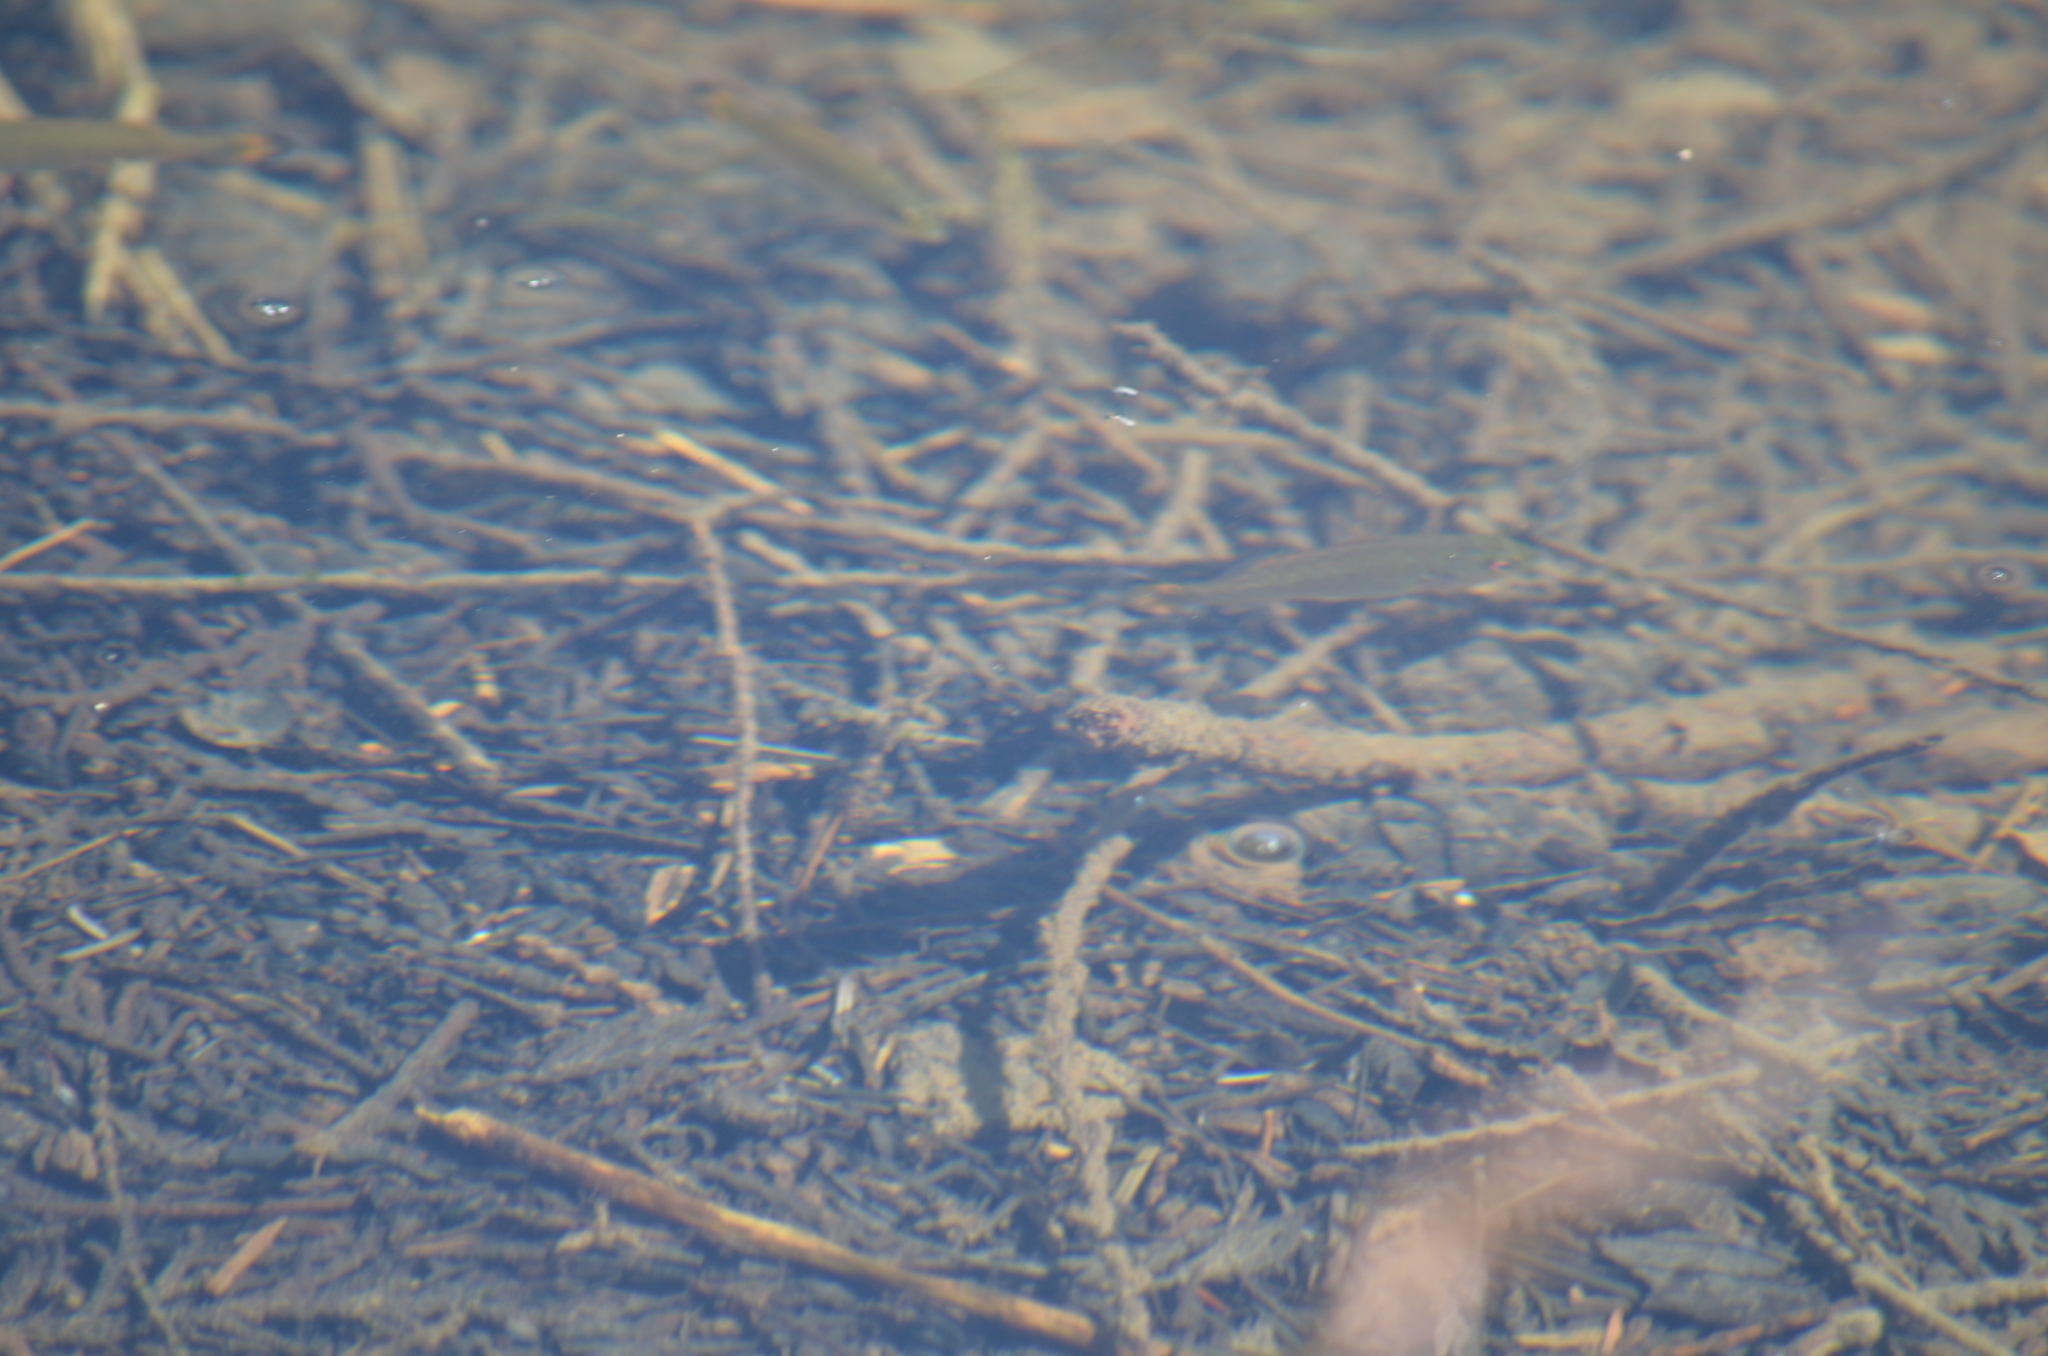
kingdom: Animalia
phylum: Chordata
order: Perciformes
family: Centrarchidae
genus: Micropterus
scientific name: Micropterus dolomieu
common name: Smallmouth bass
